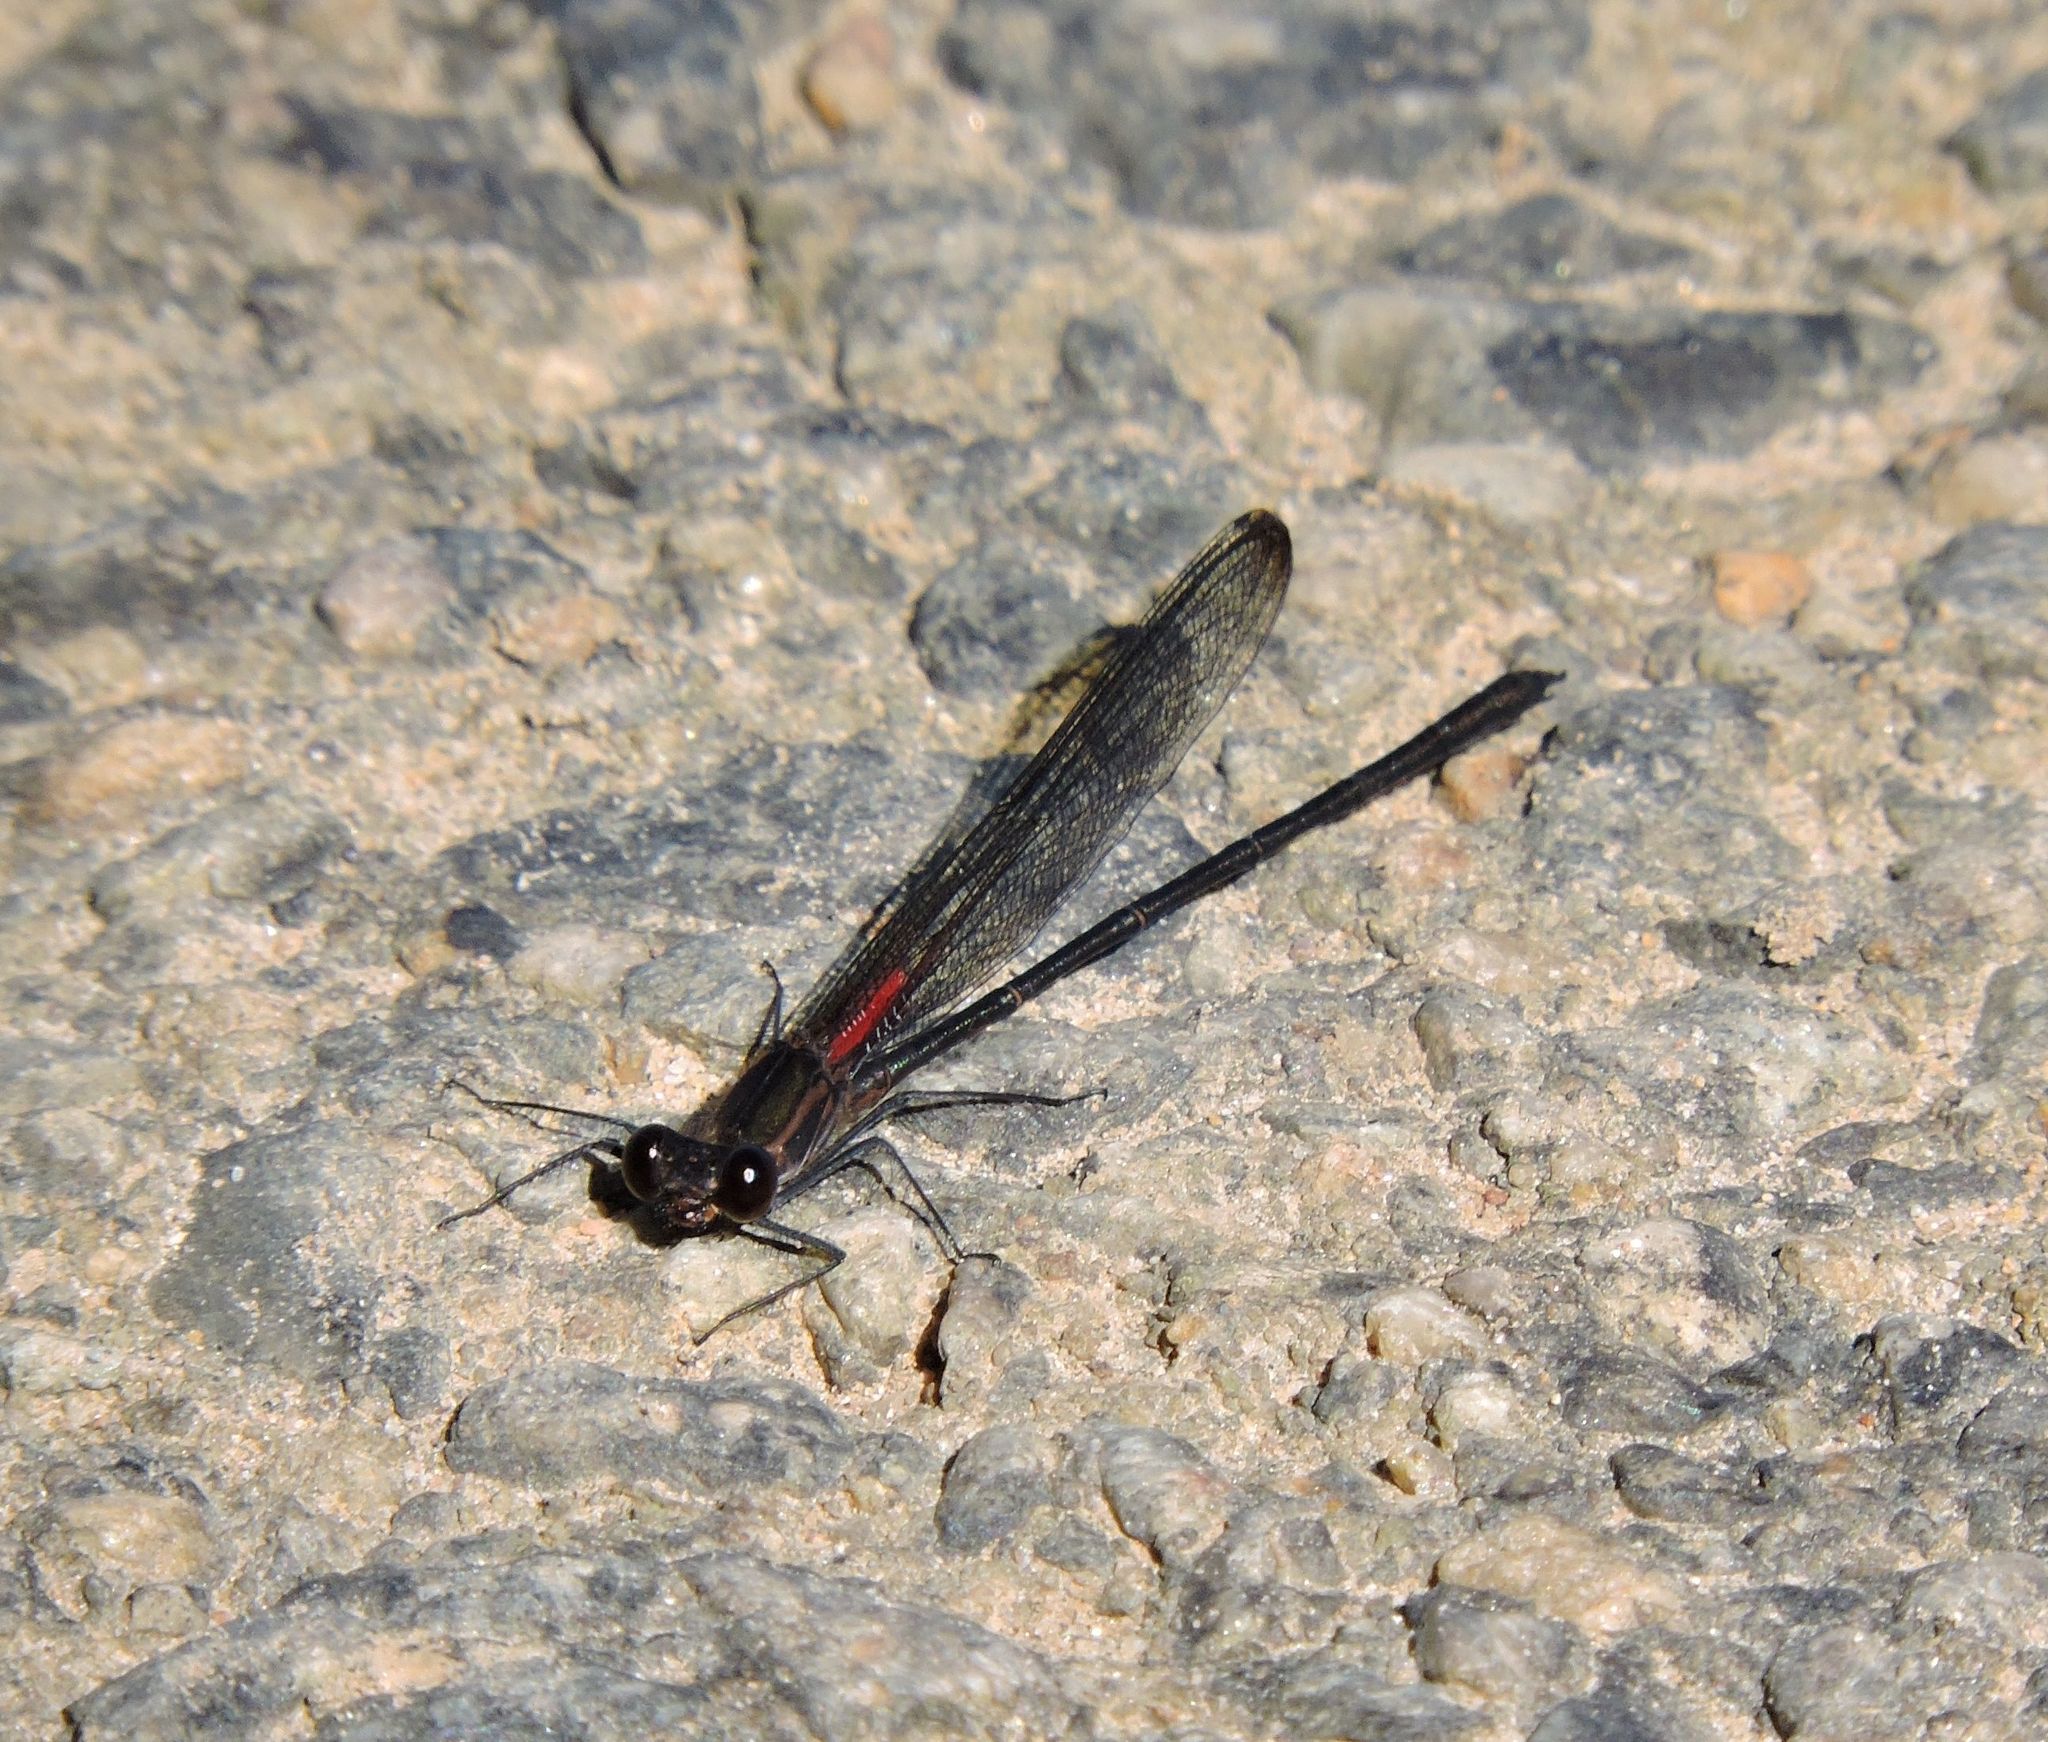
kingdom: Animalia
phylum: Arthropoda
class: Insecta
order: Odonata
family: Calopterygidae
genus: Hetaerina
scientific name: Hetaerina titia
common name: Smoky rubyspot
